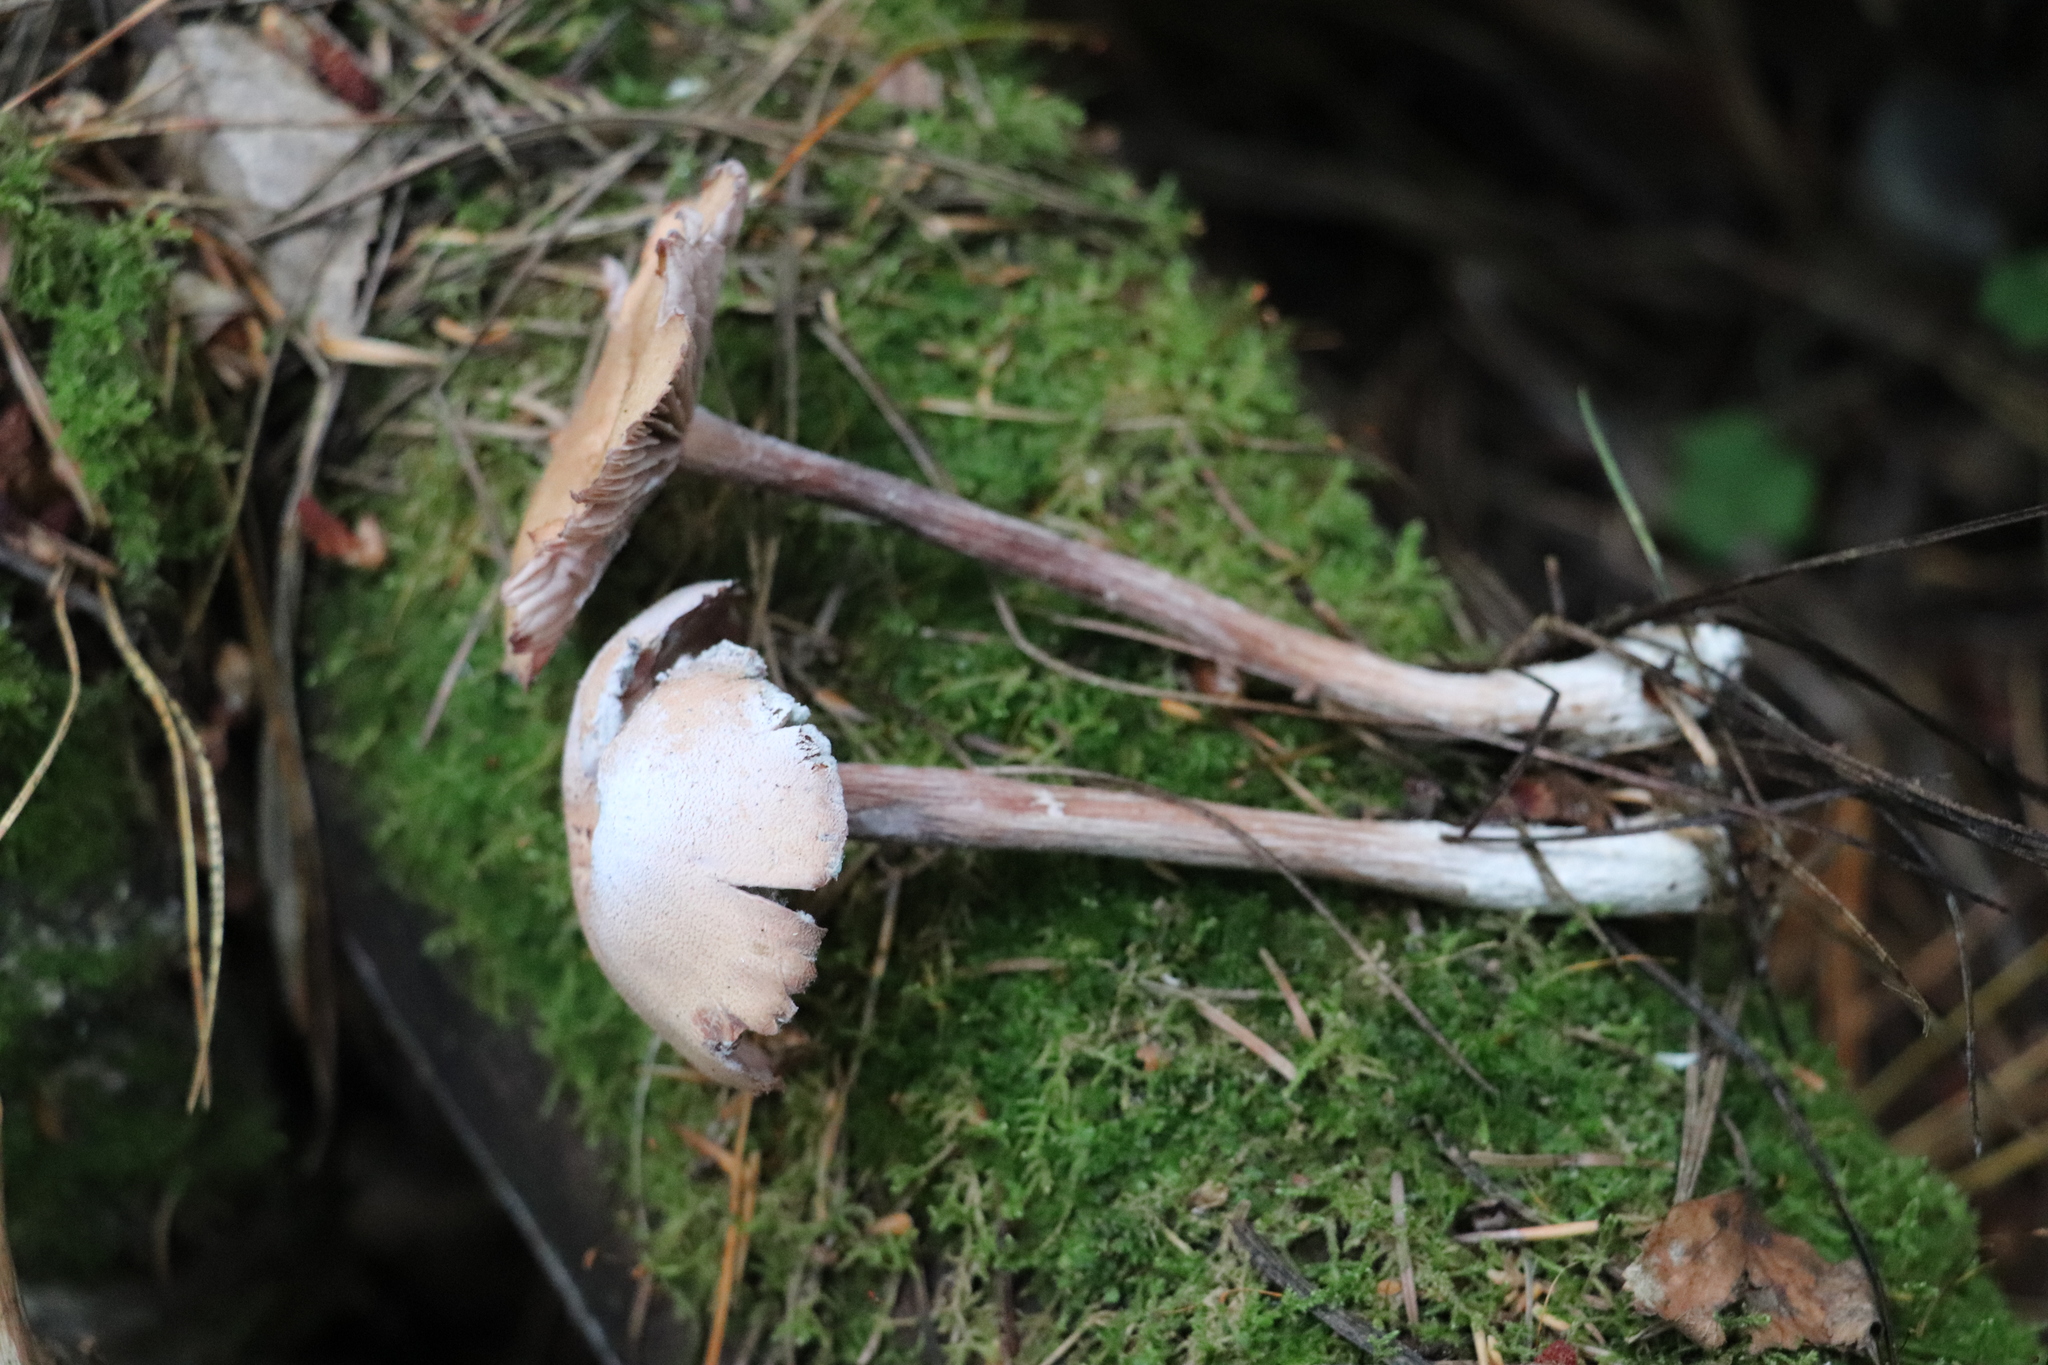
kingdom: Fungi
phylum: Basidiomycota
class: Agaricomycetes
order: Agaricales
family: Hydnangiaceae
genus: Laccaria
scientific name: Laccaria proxima
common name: Scurfy deceiver
